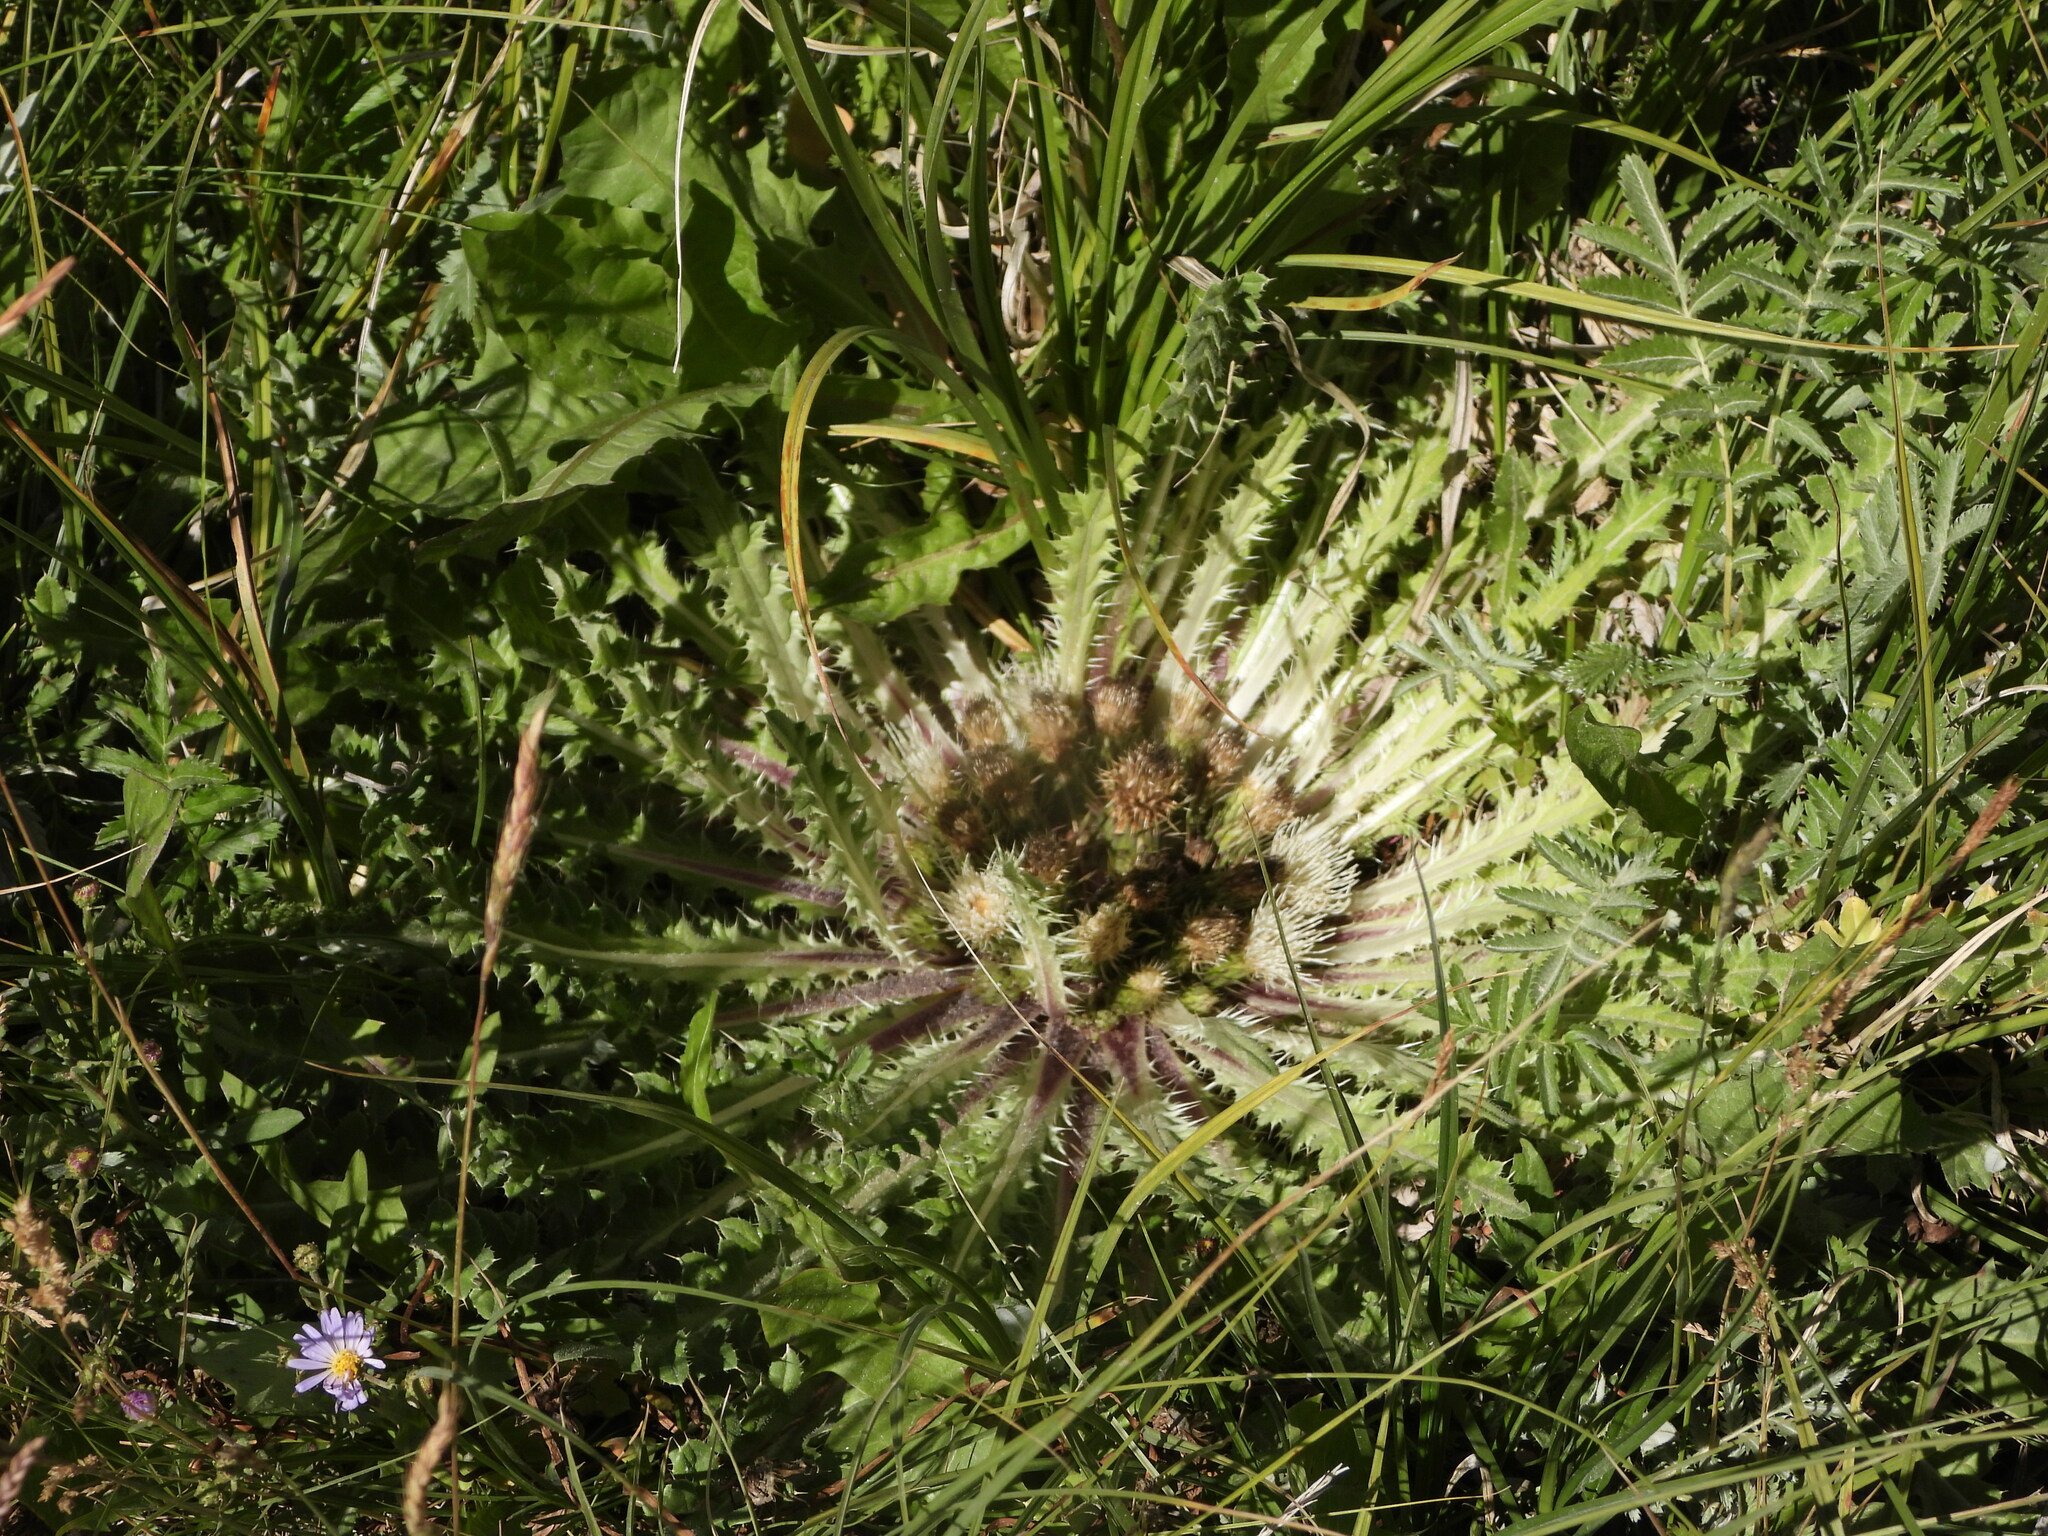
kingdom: Plantae
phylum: Tracheophyta
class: Magnoliopsida
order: Asterales
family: Asteraceae
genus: Cirsium
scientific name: Cirsium tioganum
